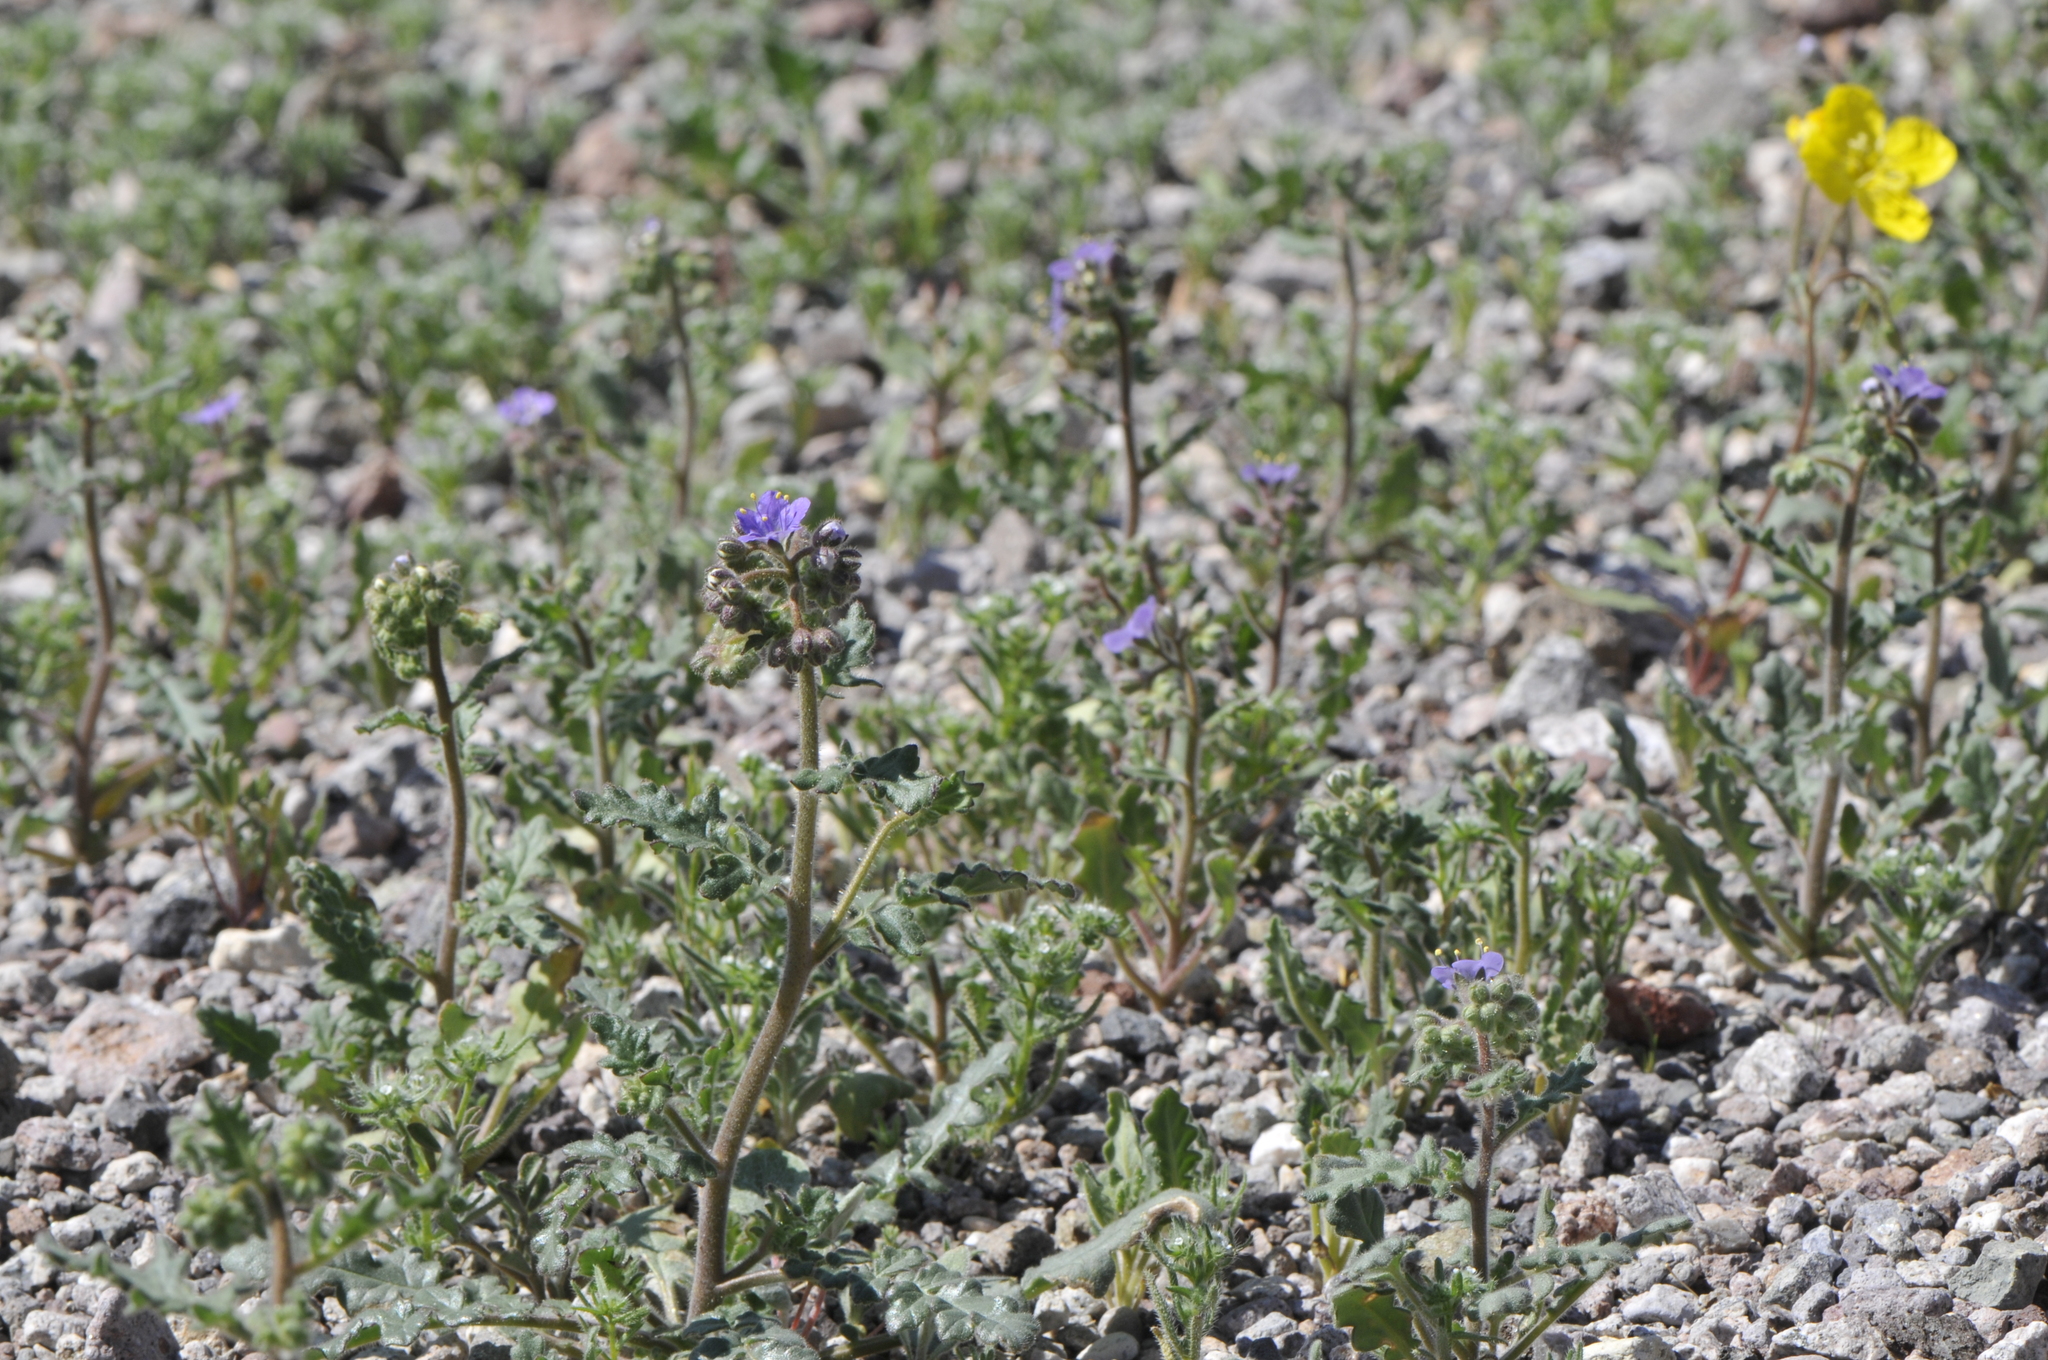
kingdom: Plantae
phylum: Tracheophyta
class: Magnoliopsida
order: Boraginales
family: Hydrophyllaceae
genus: Phacelia
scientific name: Phacelia crenulata
